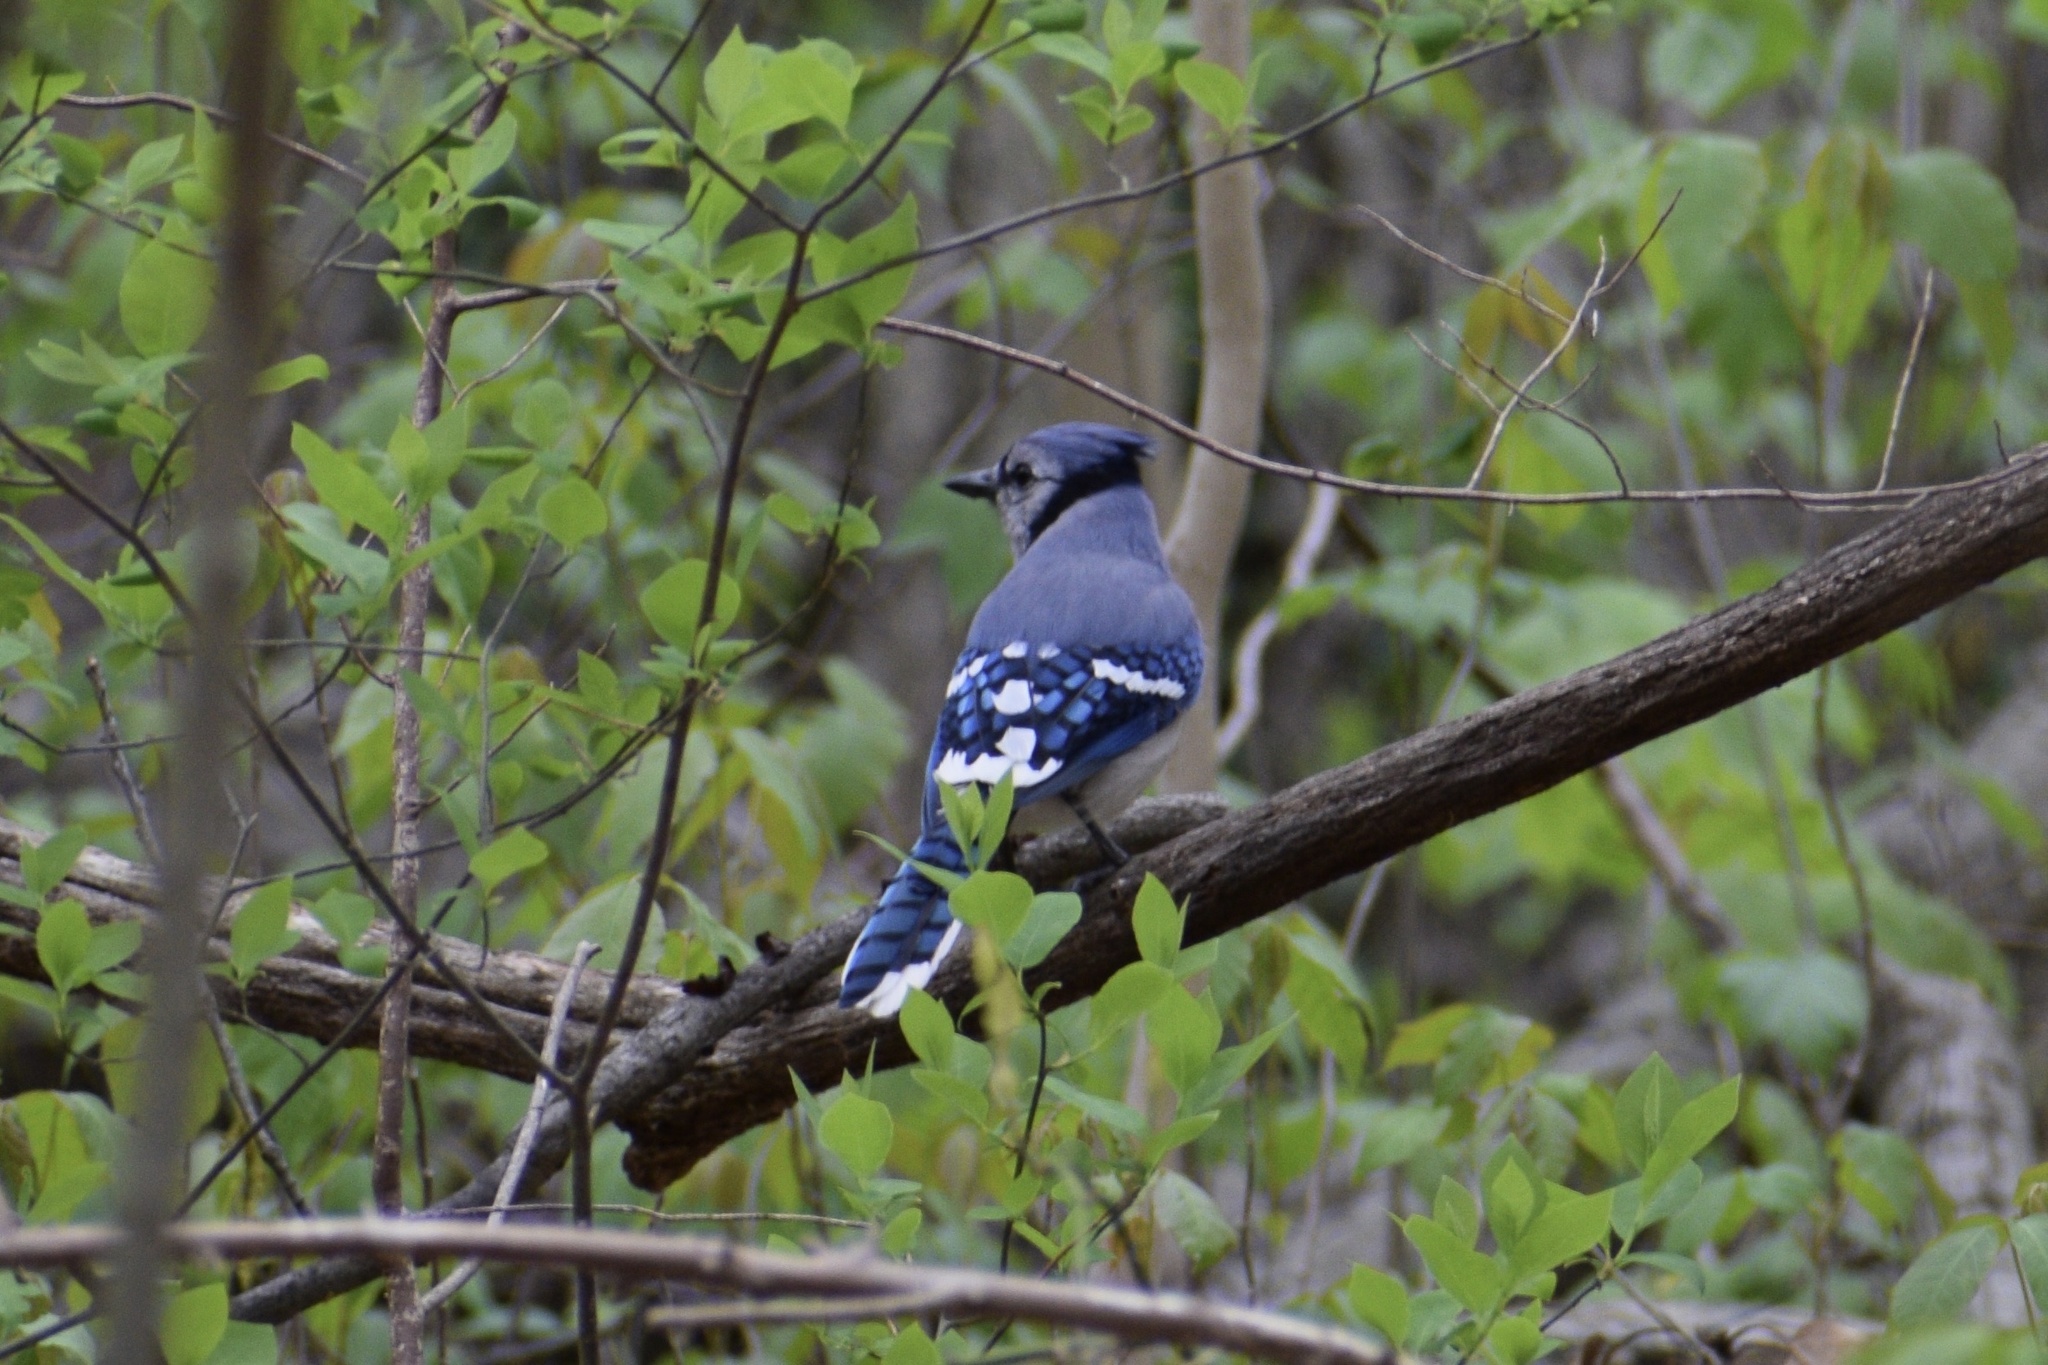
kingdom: Animalia
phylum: Chordata
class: Aves
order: Passeriformes
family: Corvidae
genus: Cyanocitta
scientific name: Cyanocitta cristata
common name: Blue jay
